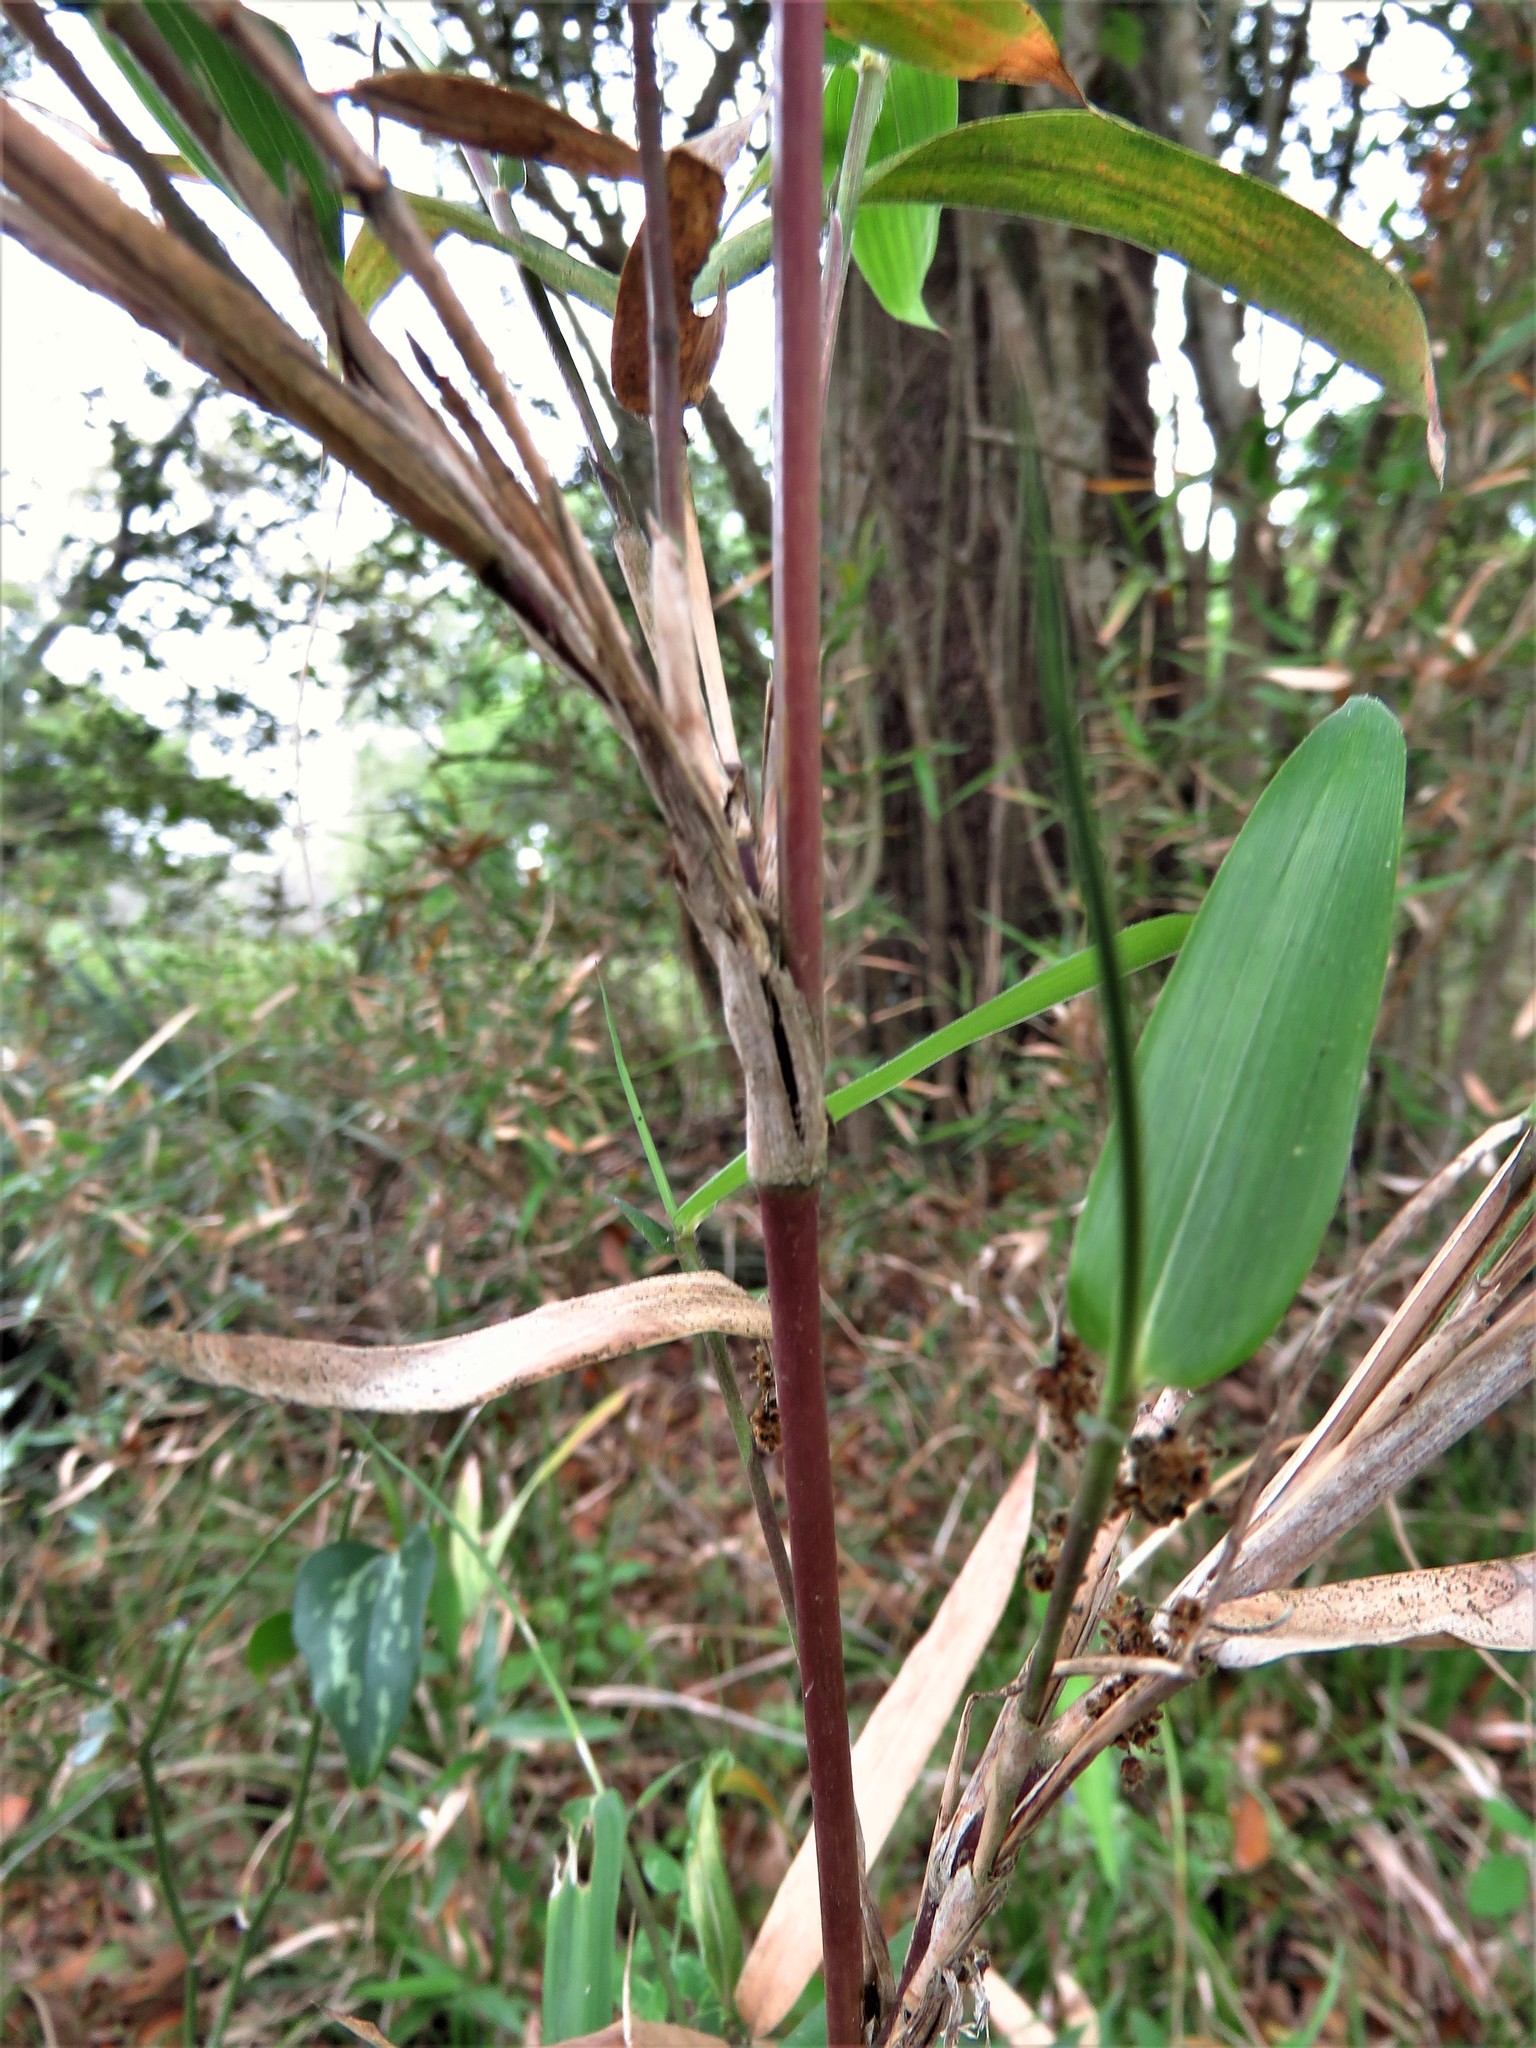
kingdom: Plantae
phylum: Tracheophyta
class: Liliopsida
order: Poales
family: Poaceae
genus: Arundinaria
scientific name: Arundinaria gigantea
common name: Giant cane
